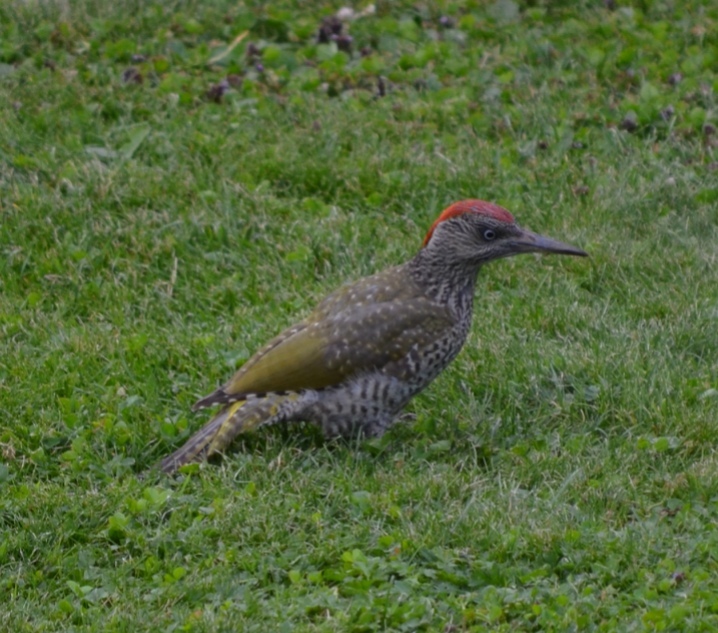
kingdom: Animalia
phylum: Chordata
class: Aves
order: Piciformes
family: Picidae
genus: Picus
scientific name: Picus viridis
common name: European green woodpecker
